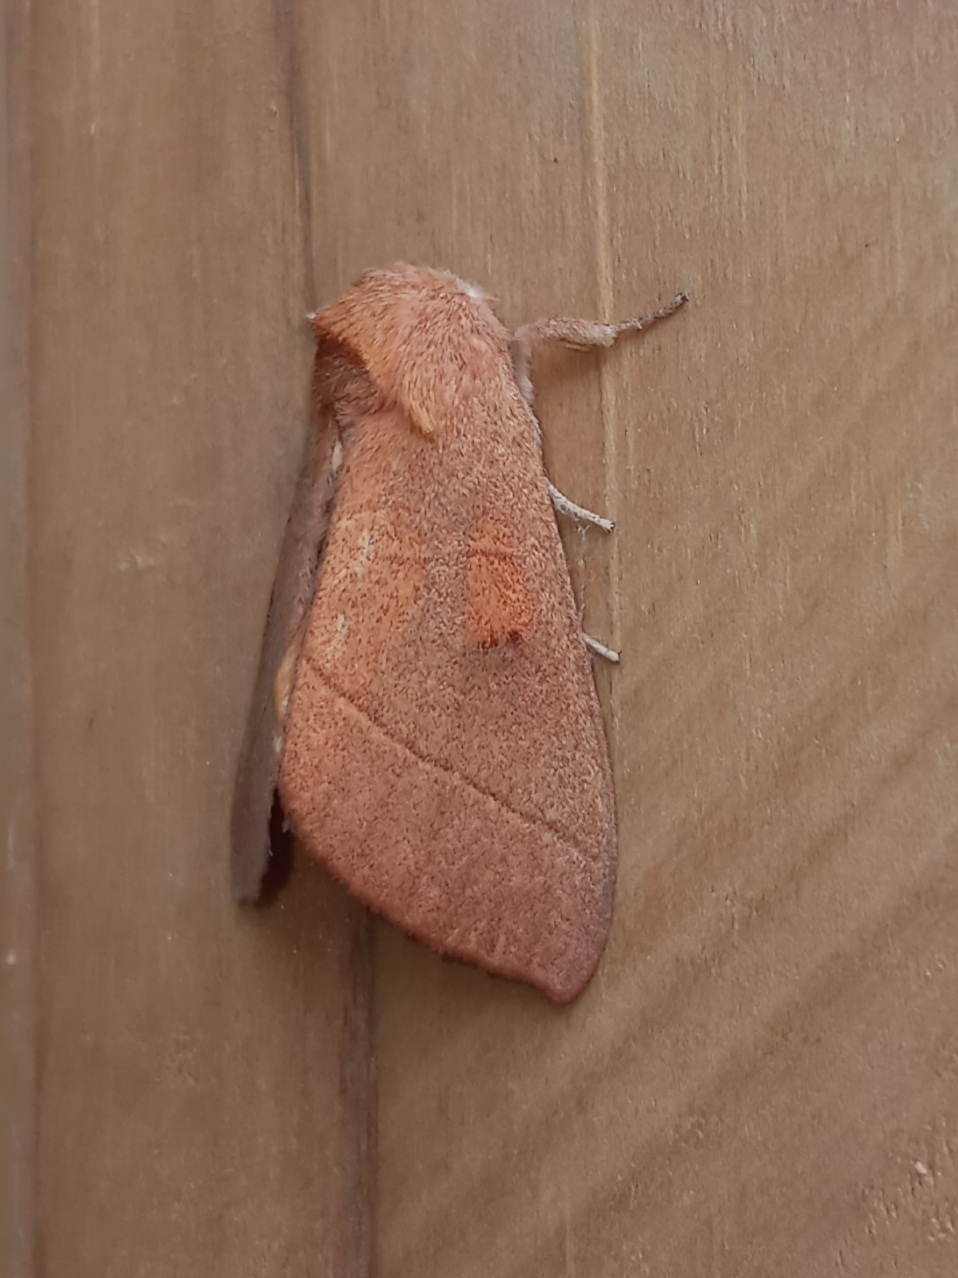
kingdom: Animalia
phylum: Arthropoda
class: Insecta
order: Lepidoptera
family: Notodontidae
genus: Nadata
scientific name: Nadata gibbosa
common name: White-dotted prominent
